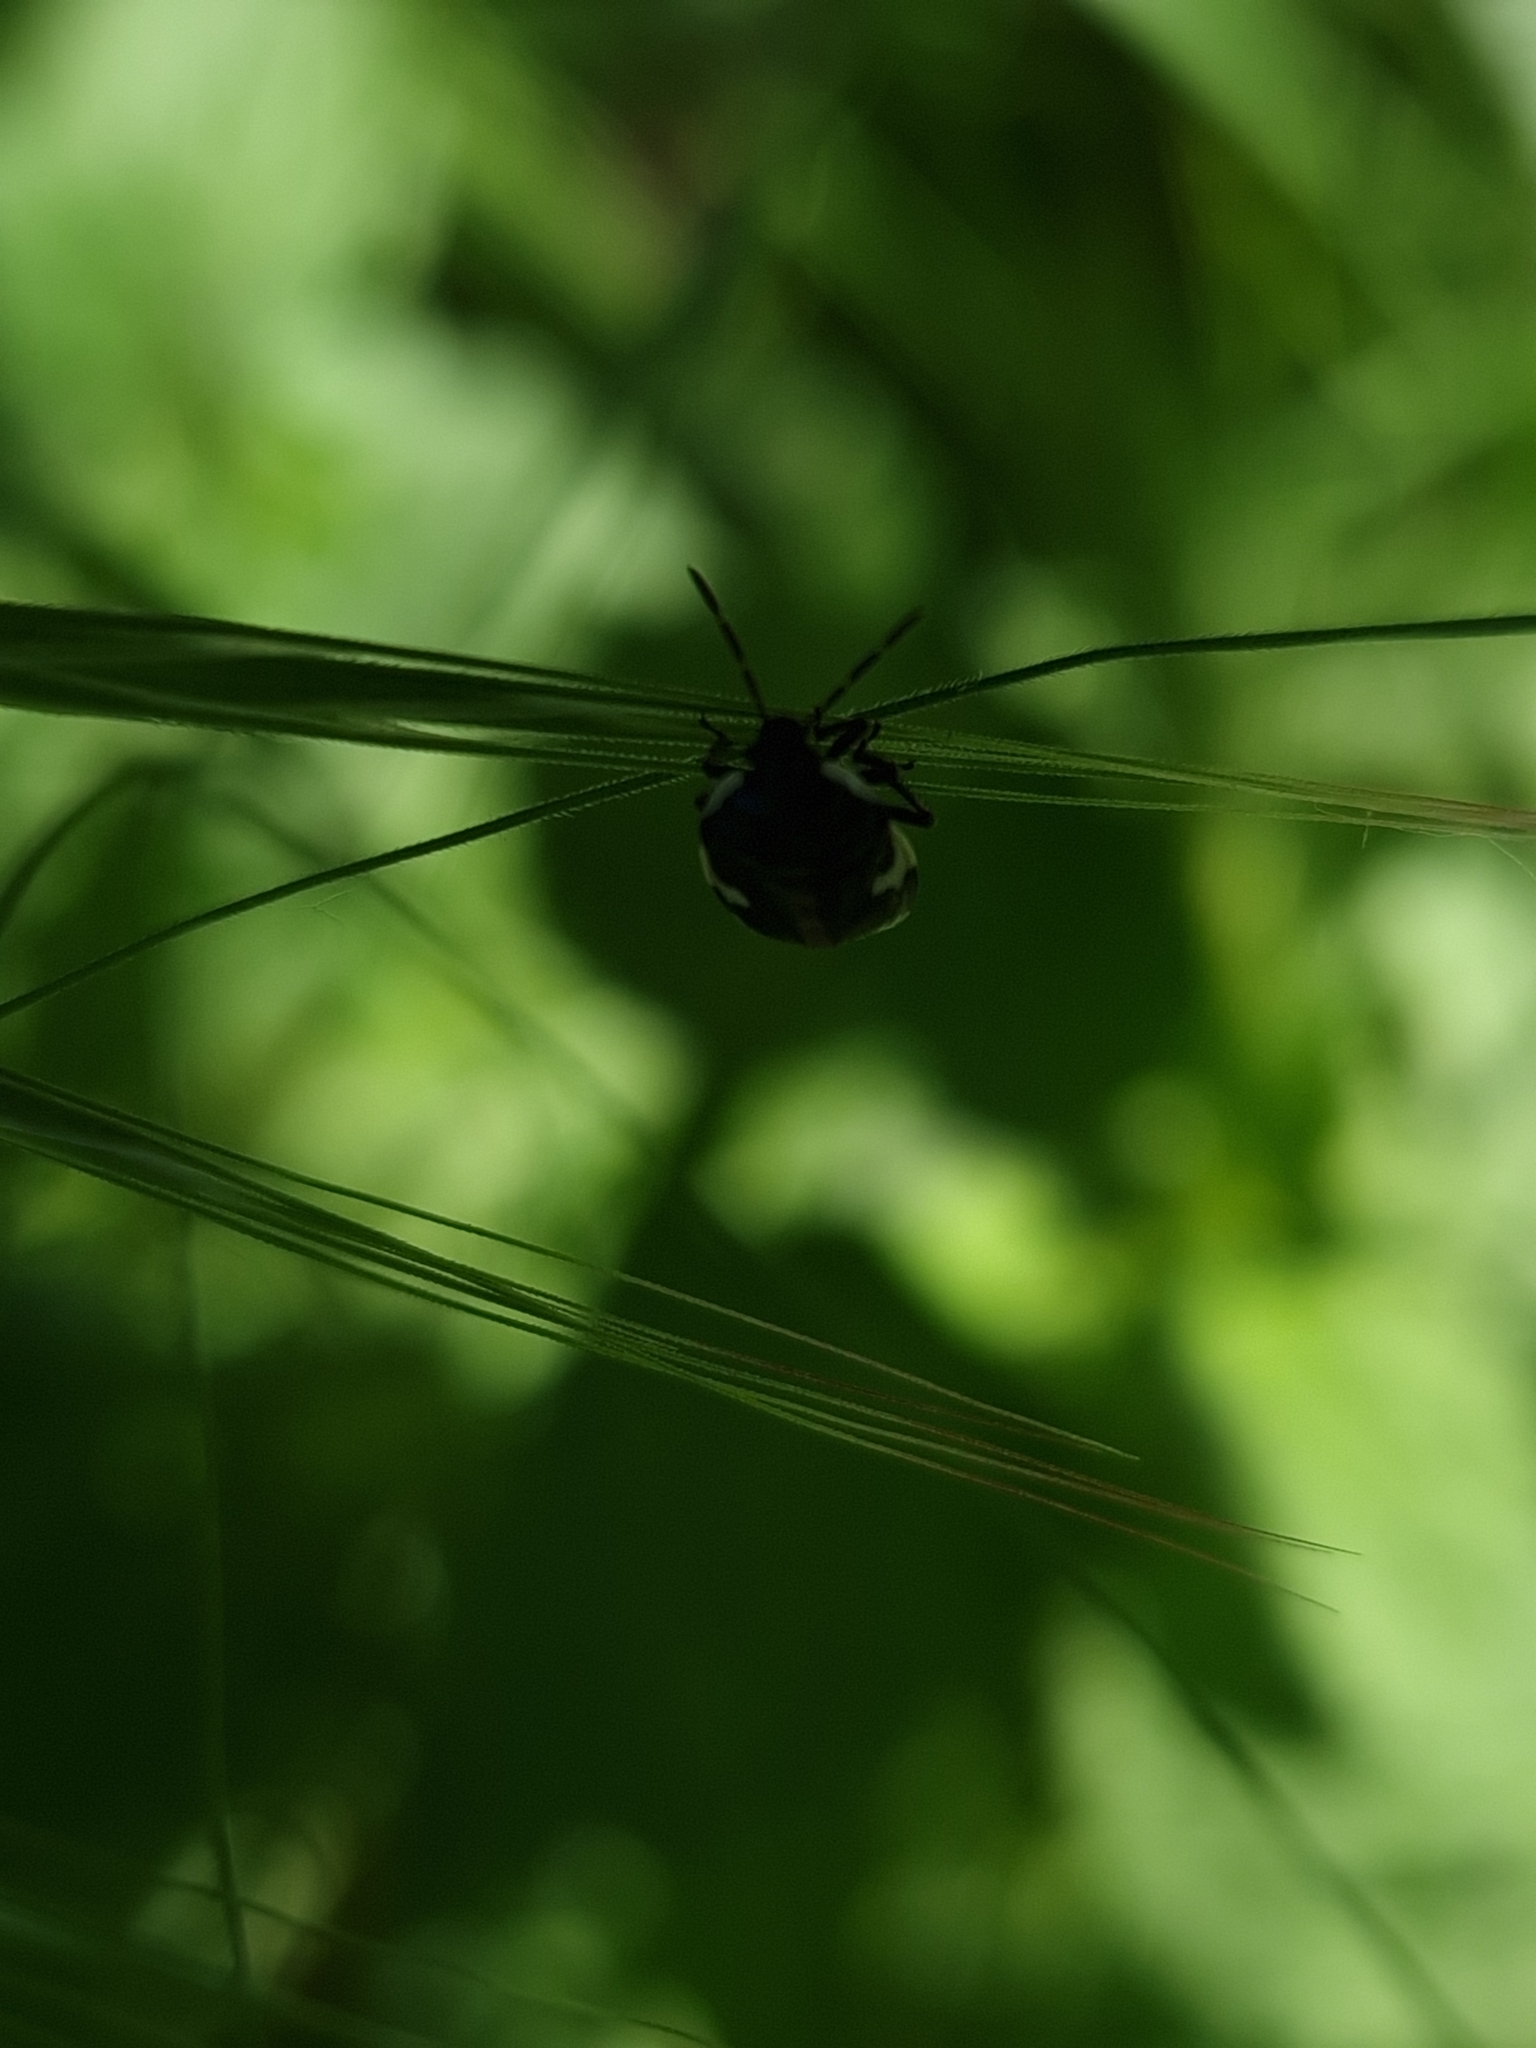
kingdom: Animalia
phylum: Arthropoda
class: Insecta
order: Hemiptera
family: Cydnidae
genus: Tritomegas
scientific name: Tritomegas sexmaculatus
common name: Rambur's pied shieldbug
